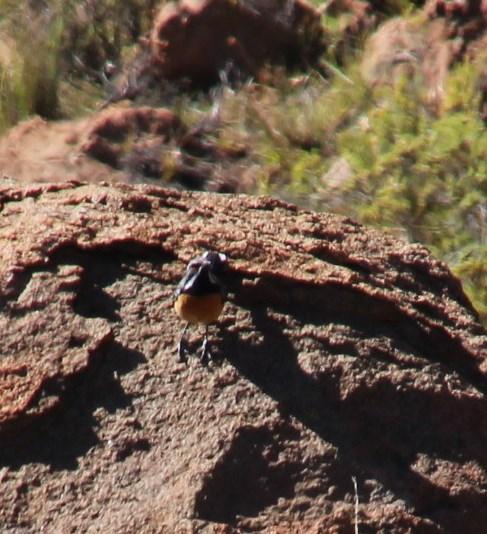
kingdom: Animalia
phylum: Chordata
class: Aves
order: Passeriformes
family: Chaetopidae
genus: Chaetops
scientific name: Chaetops aurantius
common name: Drakensberg rockjumper
